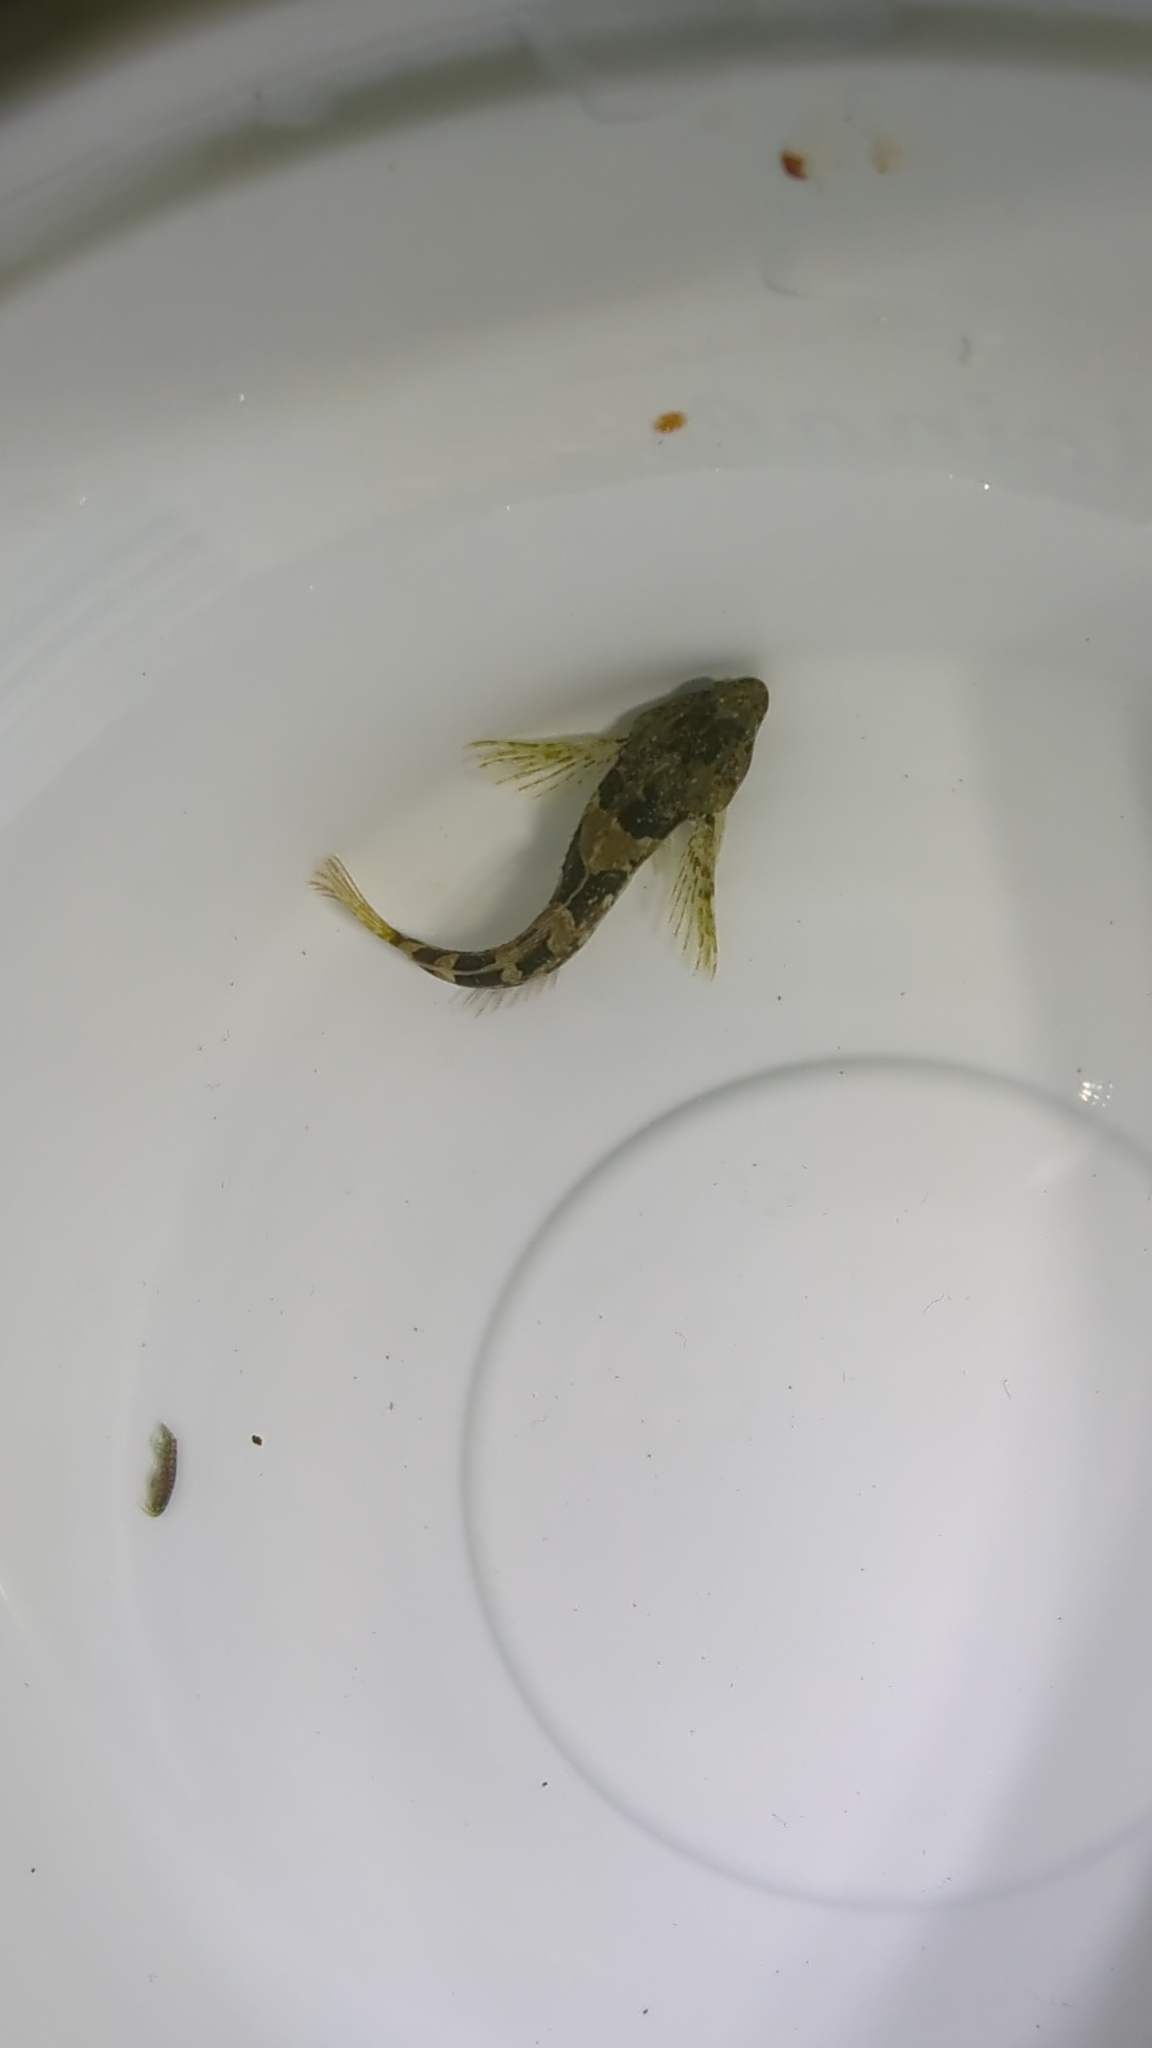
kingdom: Animalia
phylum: Chordata
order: Scorpaeniformes
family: Cottidae
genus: Oligocottus
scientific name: Oligocottus maculosus
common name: Tidepool sculpin
